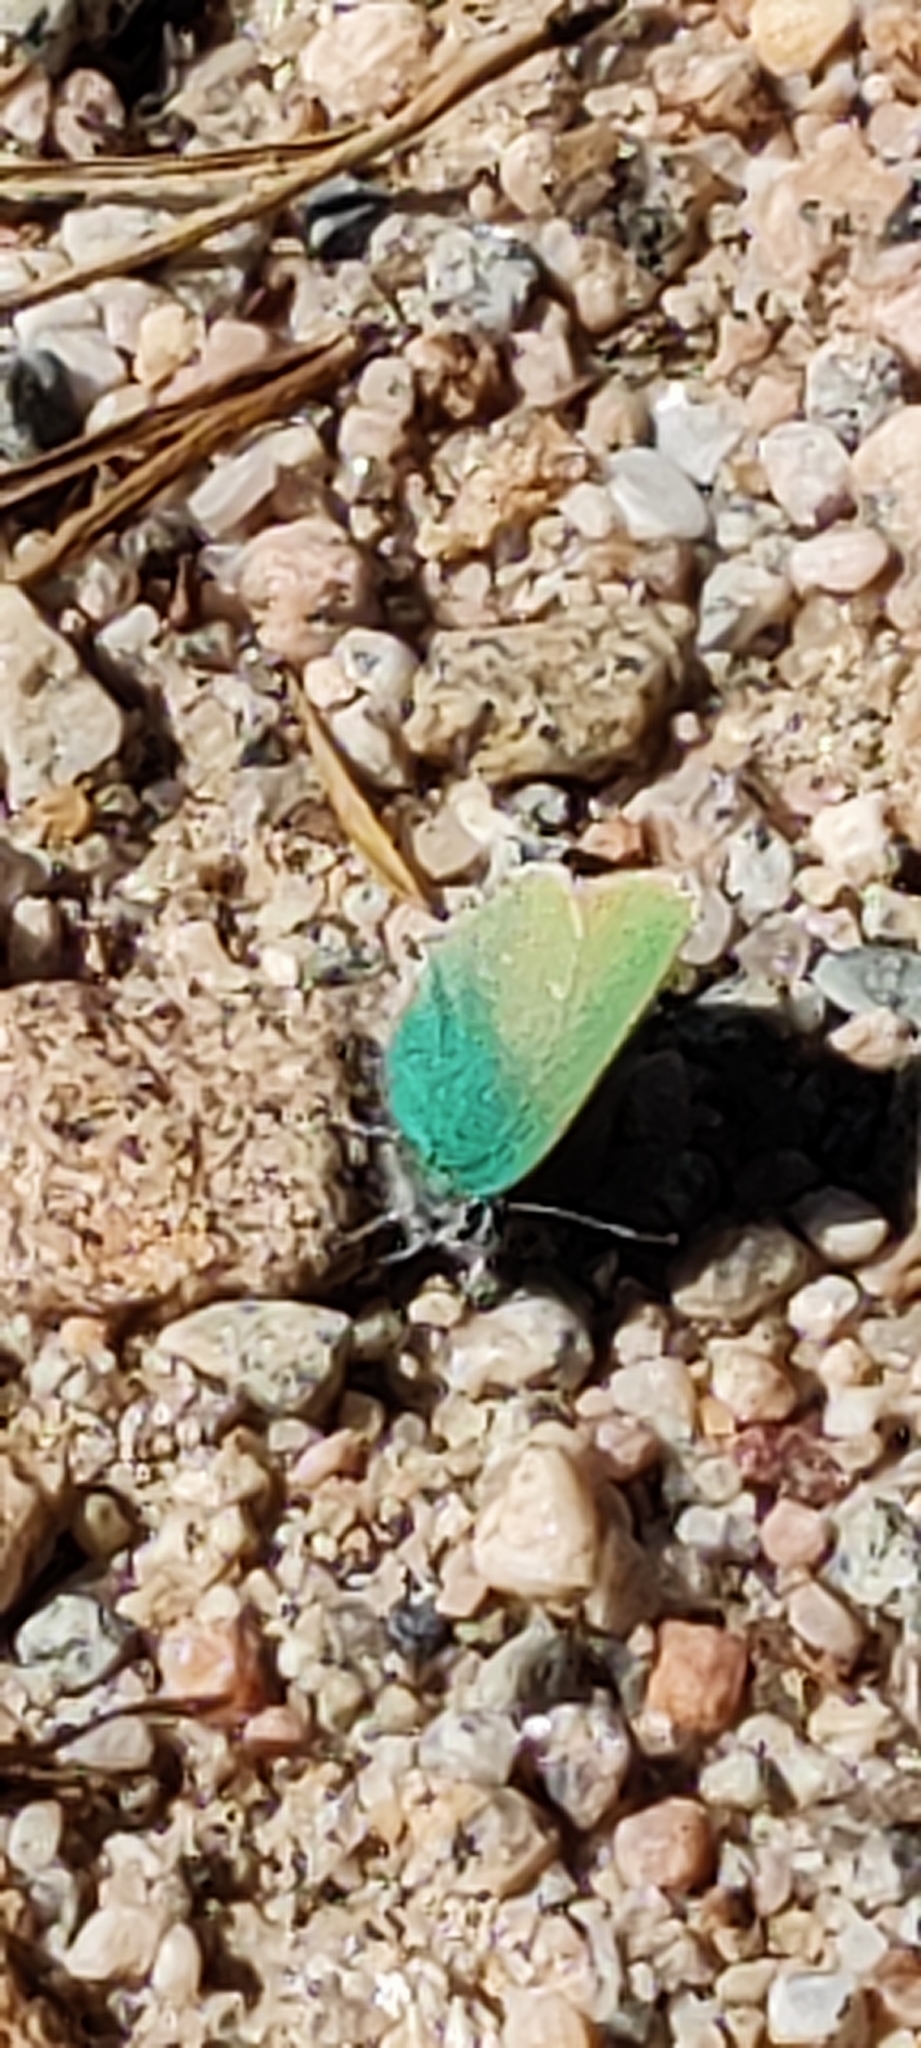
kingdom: Animalia
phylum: Arthropoda
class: Insecta
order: Lepidoptera
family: Lycaenidae
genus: Callophrys
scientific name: Callophrys rubi
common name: Green hairstreak
